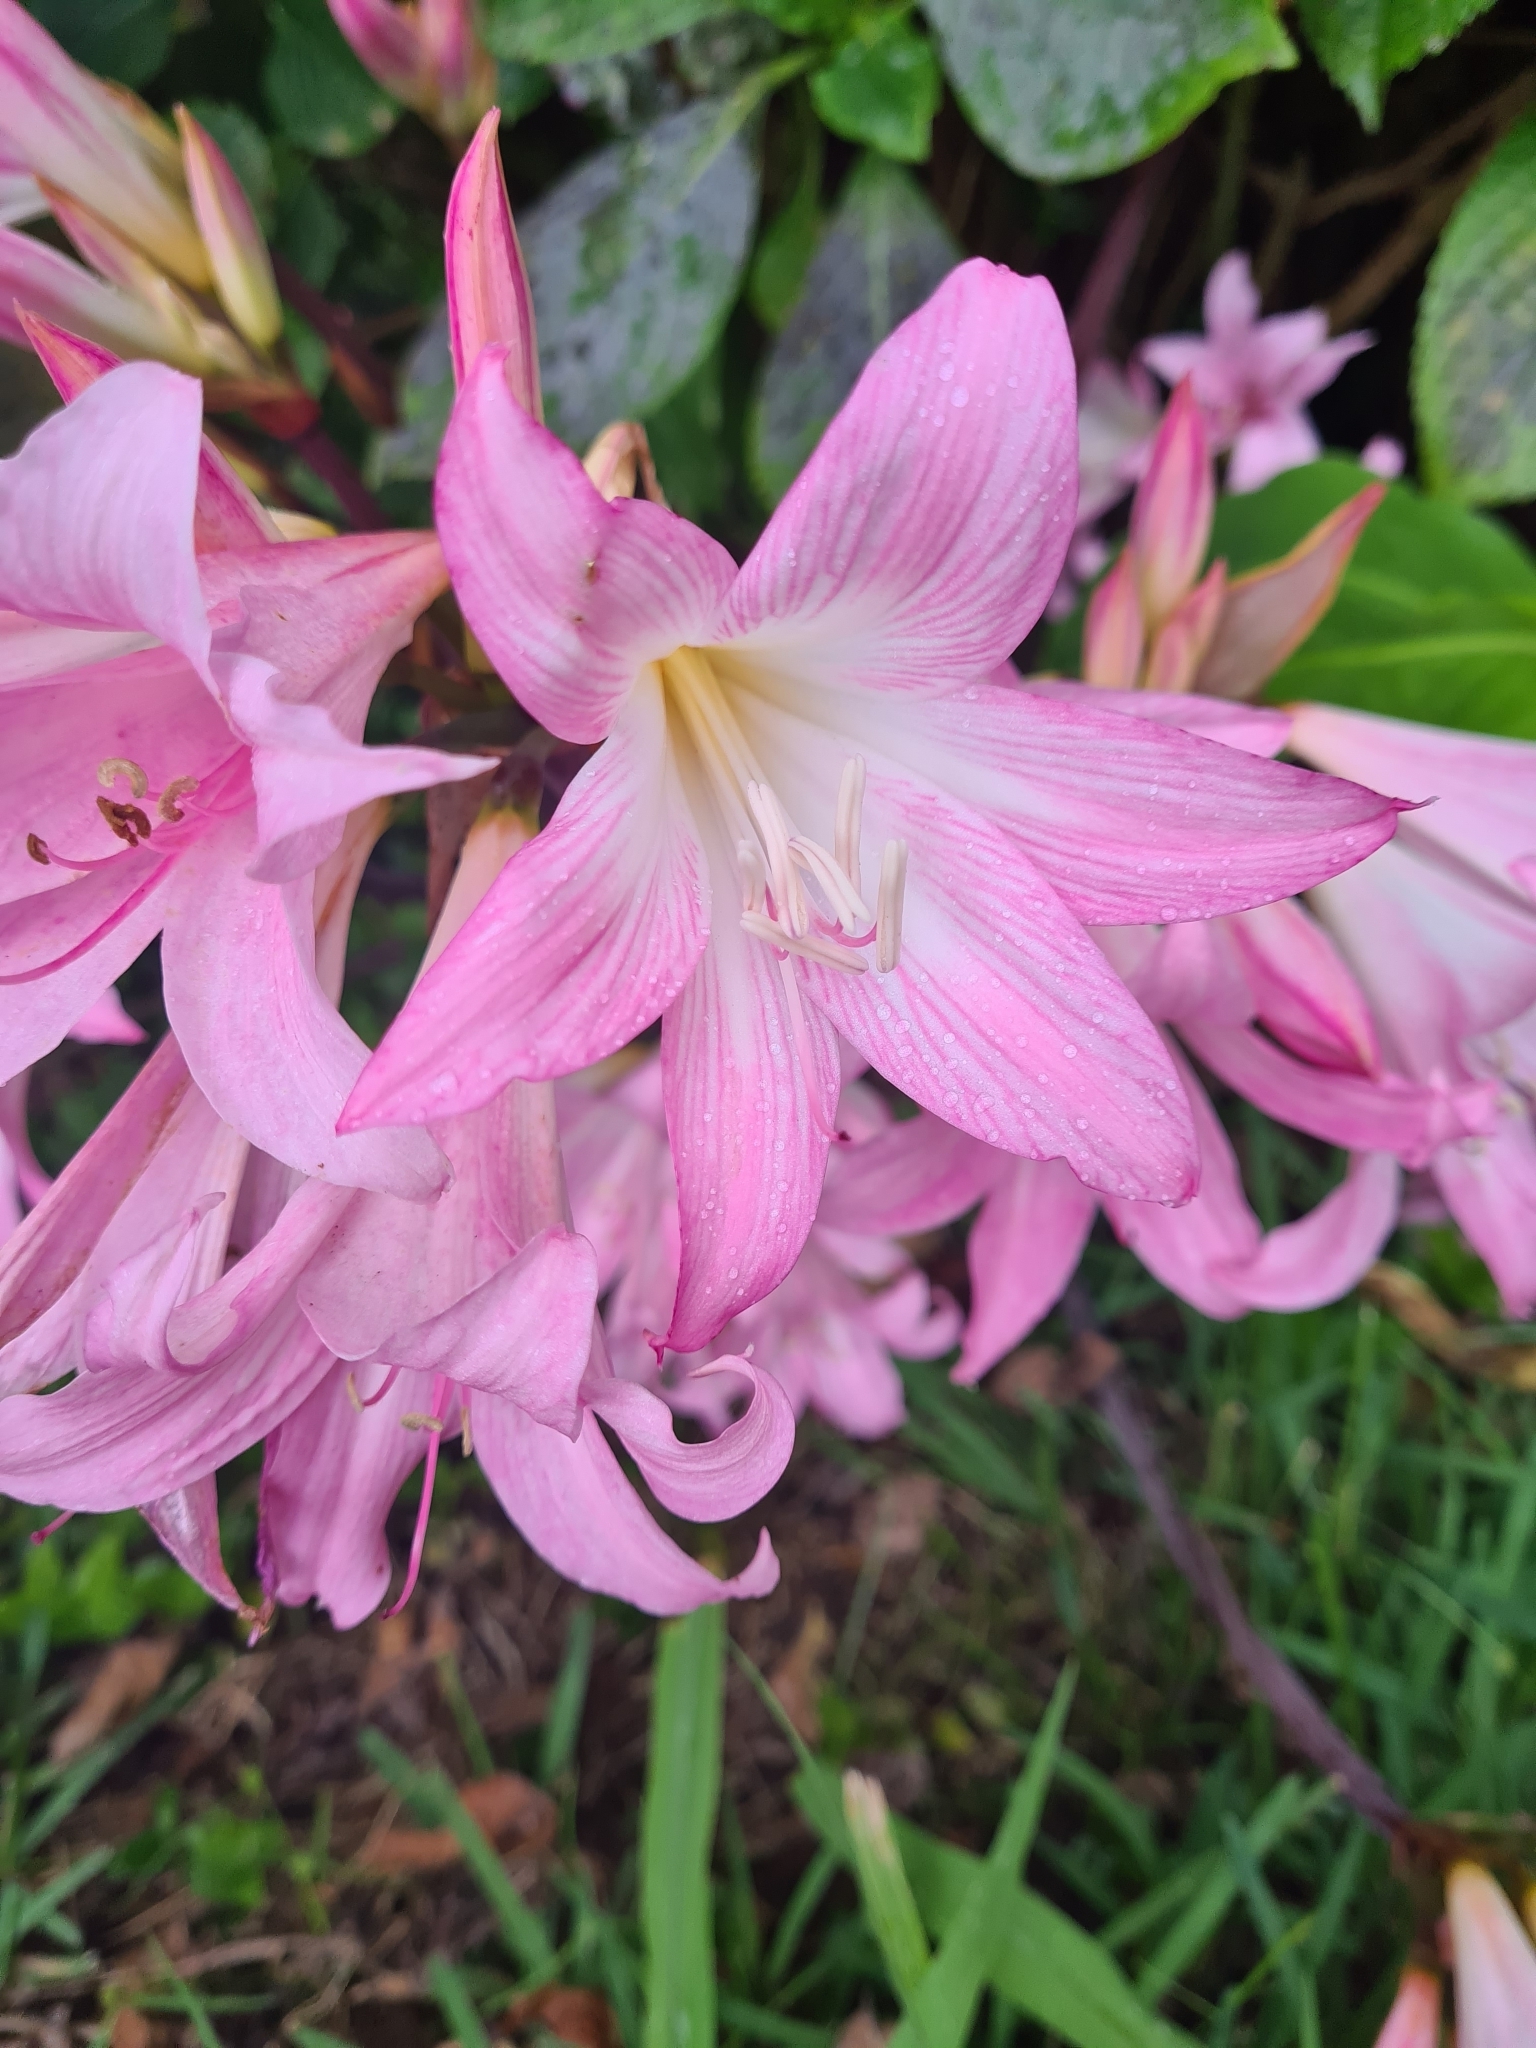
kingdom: Plantae
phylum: Tracheophyta
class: Liliopsida
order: Asparagales
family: Amaryllidaceae
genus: Amaryllis
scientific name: Amaryllis belladonna
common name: Jersey lily
